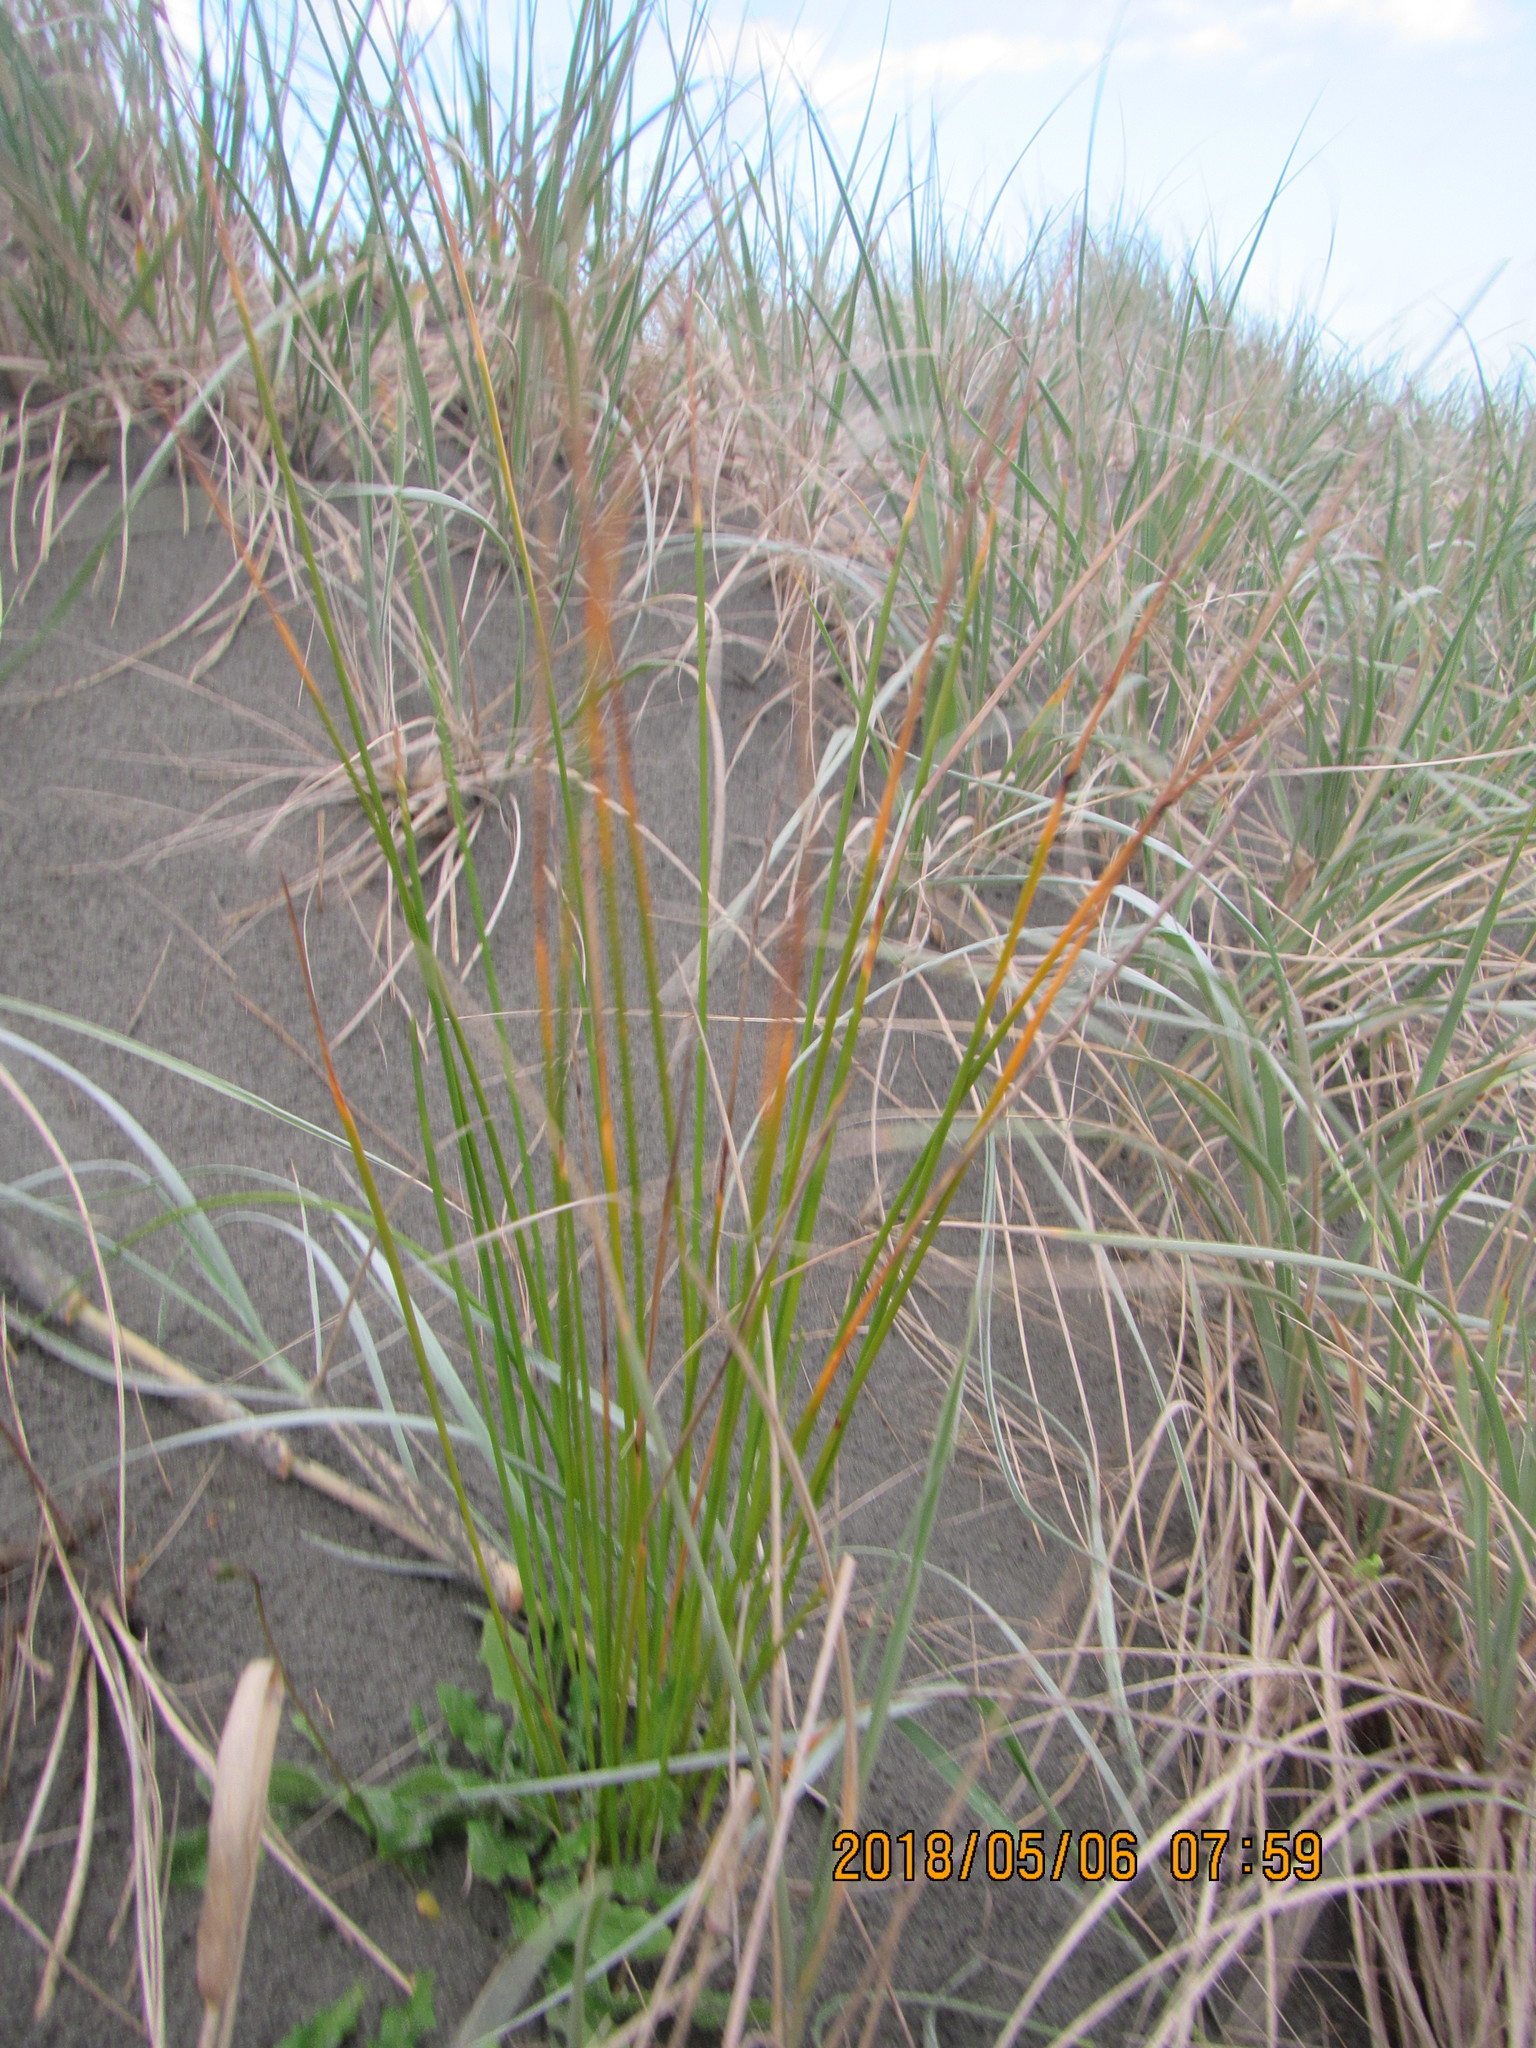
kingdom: Plantae
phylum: Tracheophyta
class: Liliopsida
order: Poales
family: Cyperaceae
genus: Ficinia
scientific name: Ficinia nodosa
